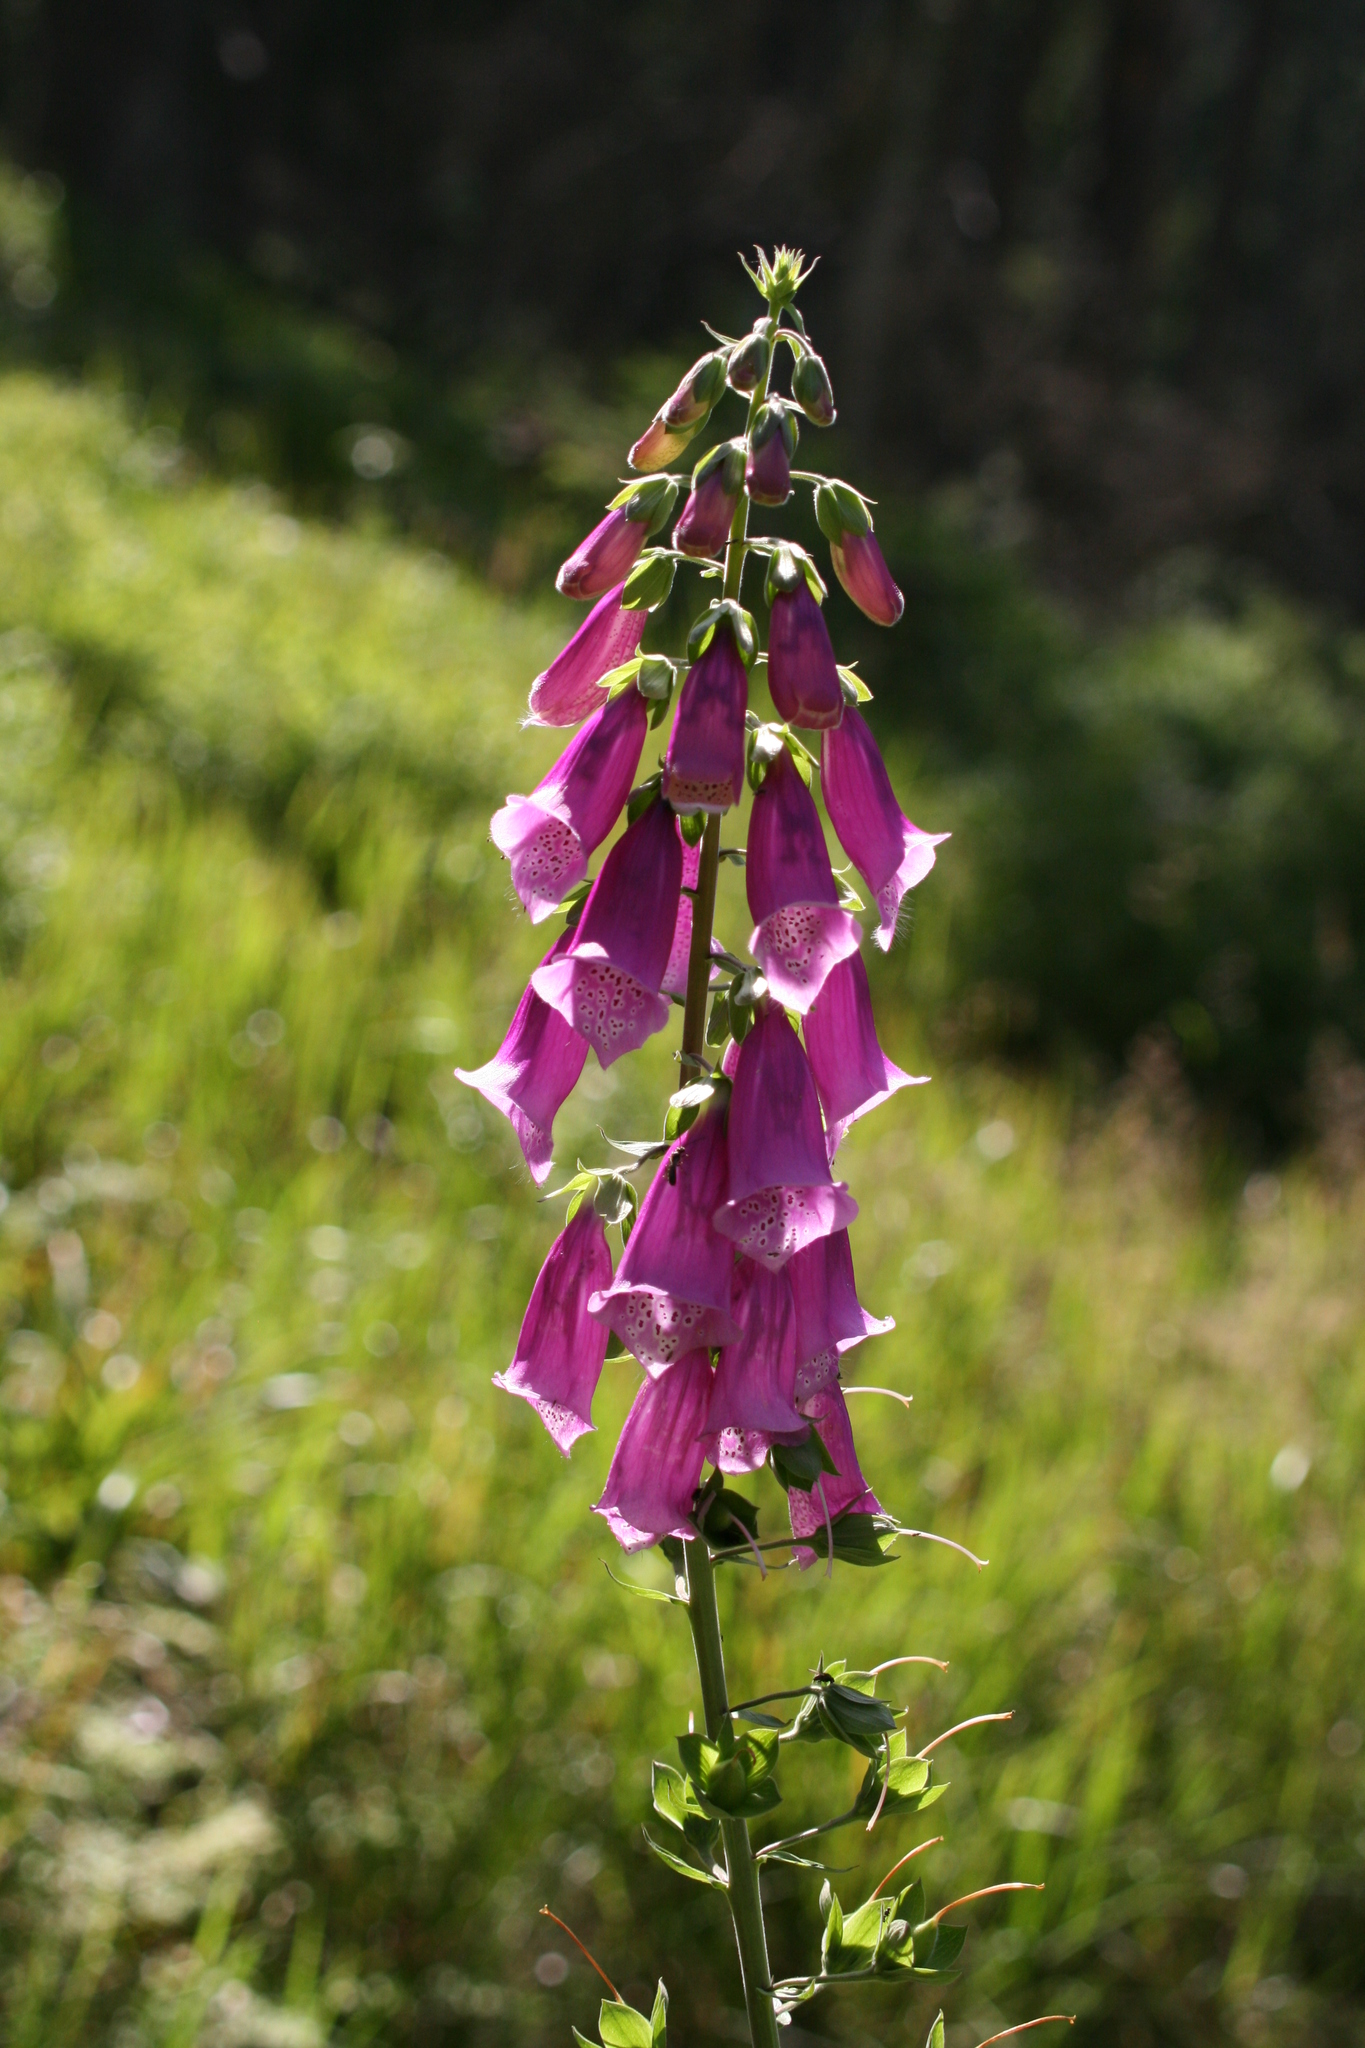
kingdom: Plantae
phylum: Tracheophyta
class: Magnoliopsida
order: Lamiales
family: Plantaginaceae
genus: Digitalis
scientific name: Digitalis purpurea
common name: Foxglove
